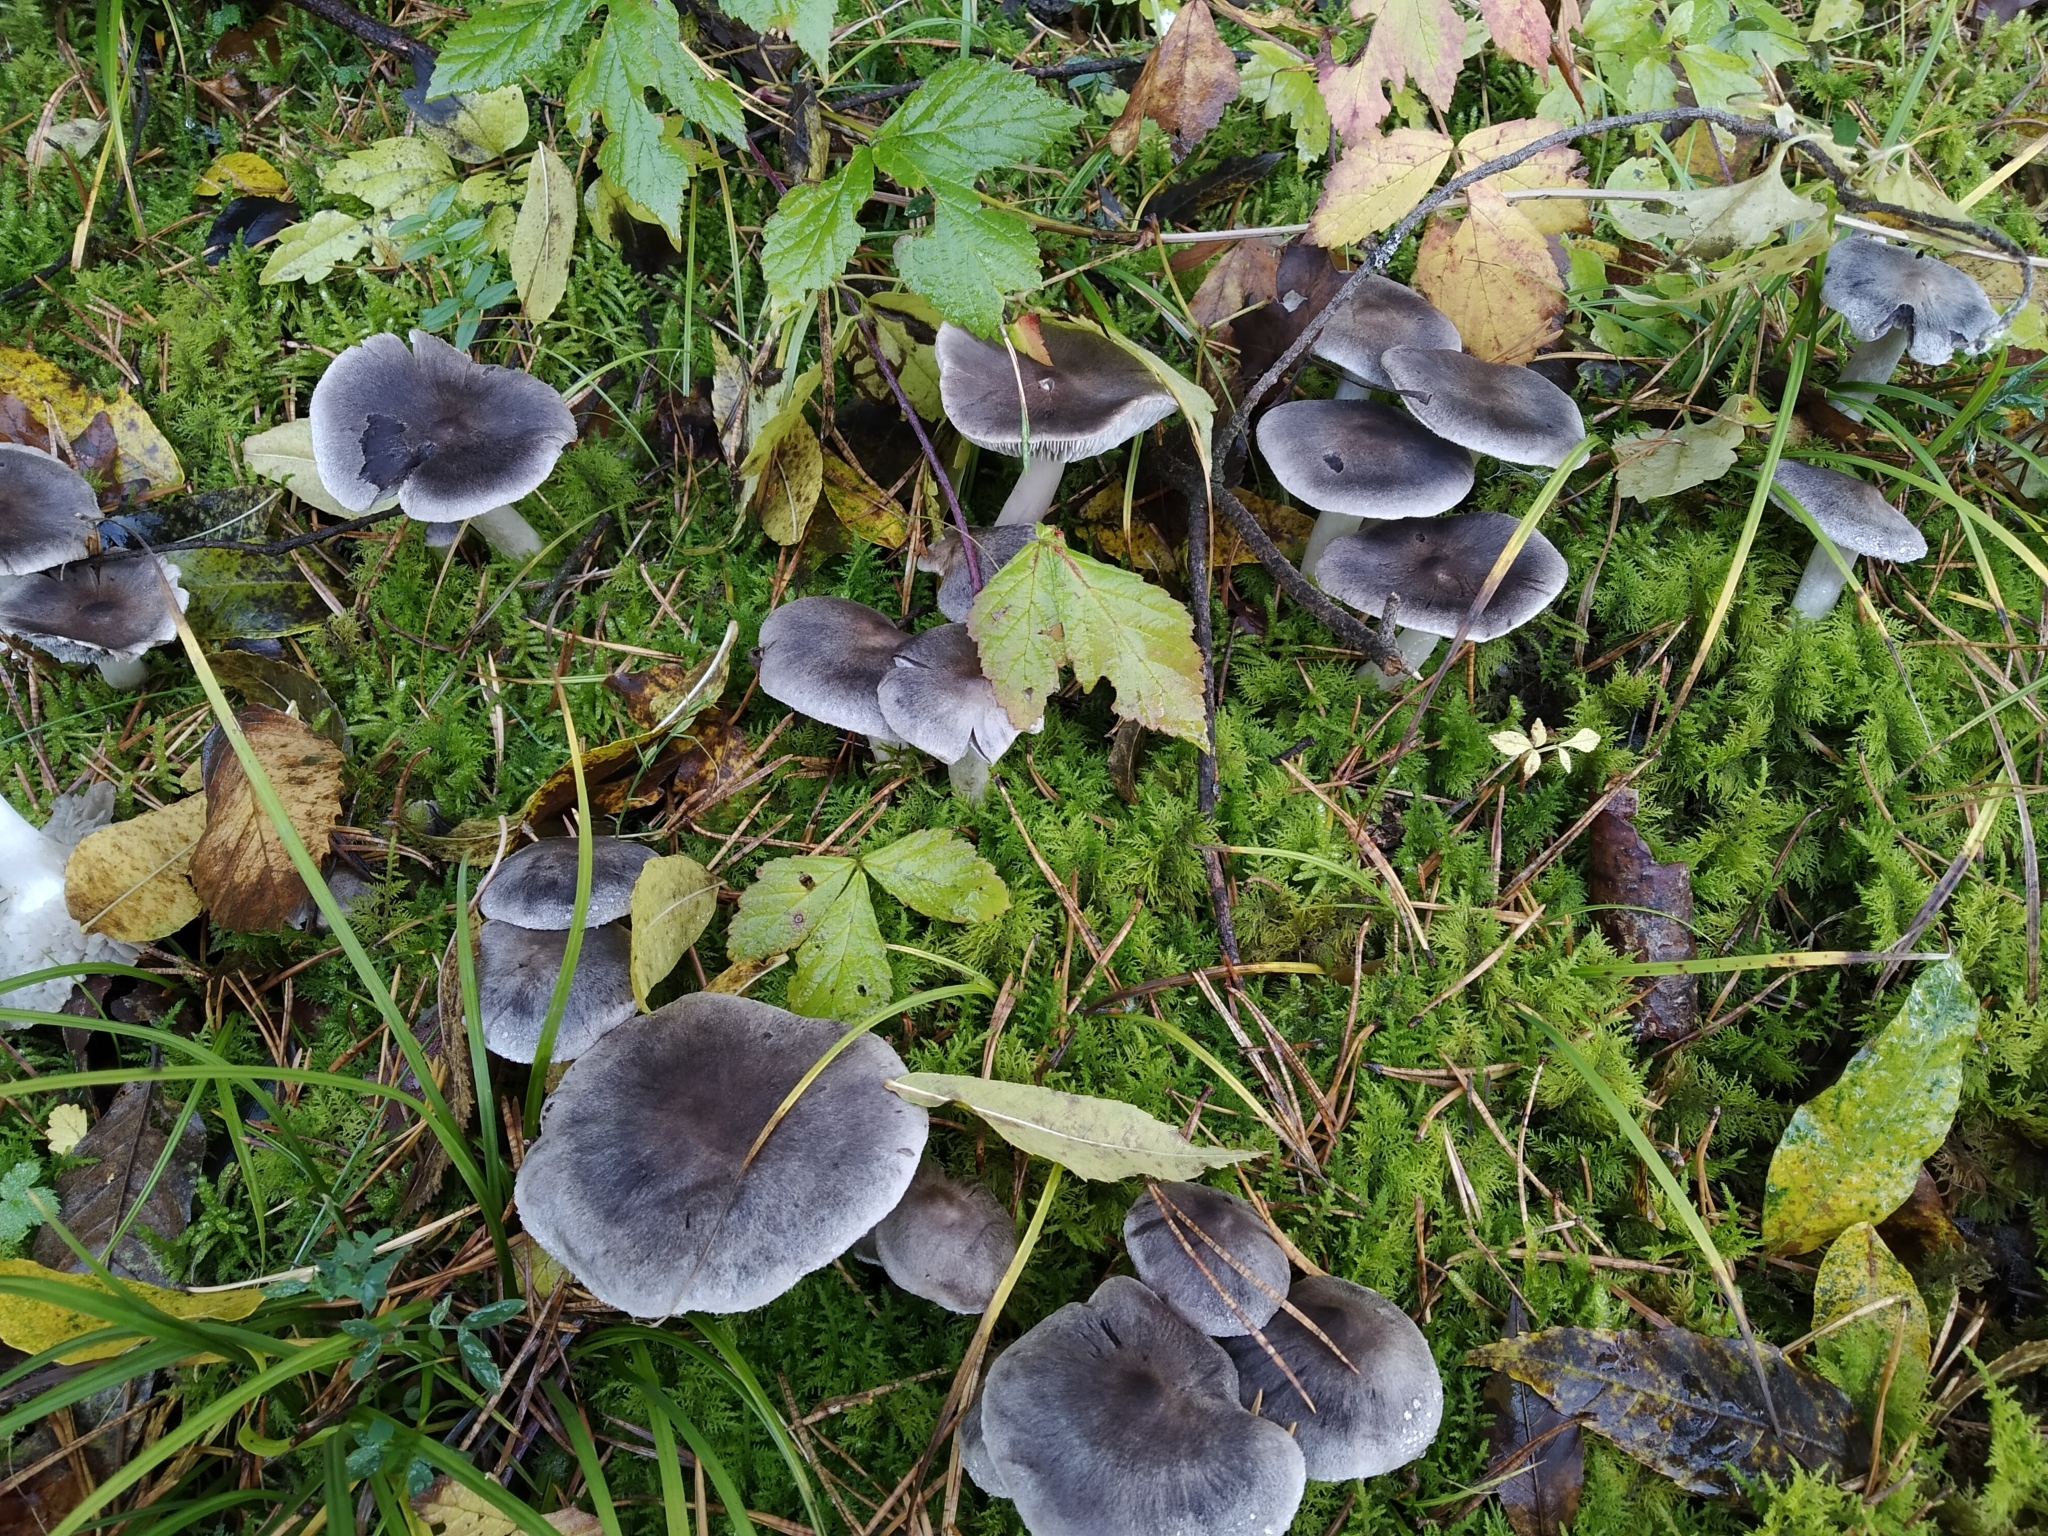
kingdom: Fungi
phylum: Basidiomycota
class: Agaricomycetes
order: Agaricales
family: Tricholomataceae
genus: Tricholoma
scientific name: Tricholoma terreum
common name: Grey knight
